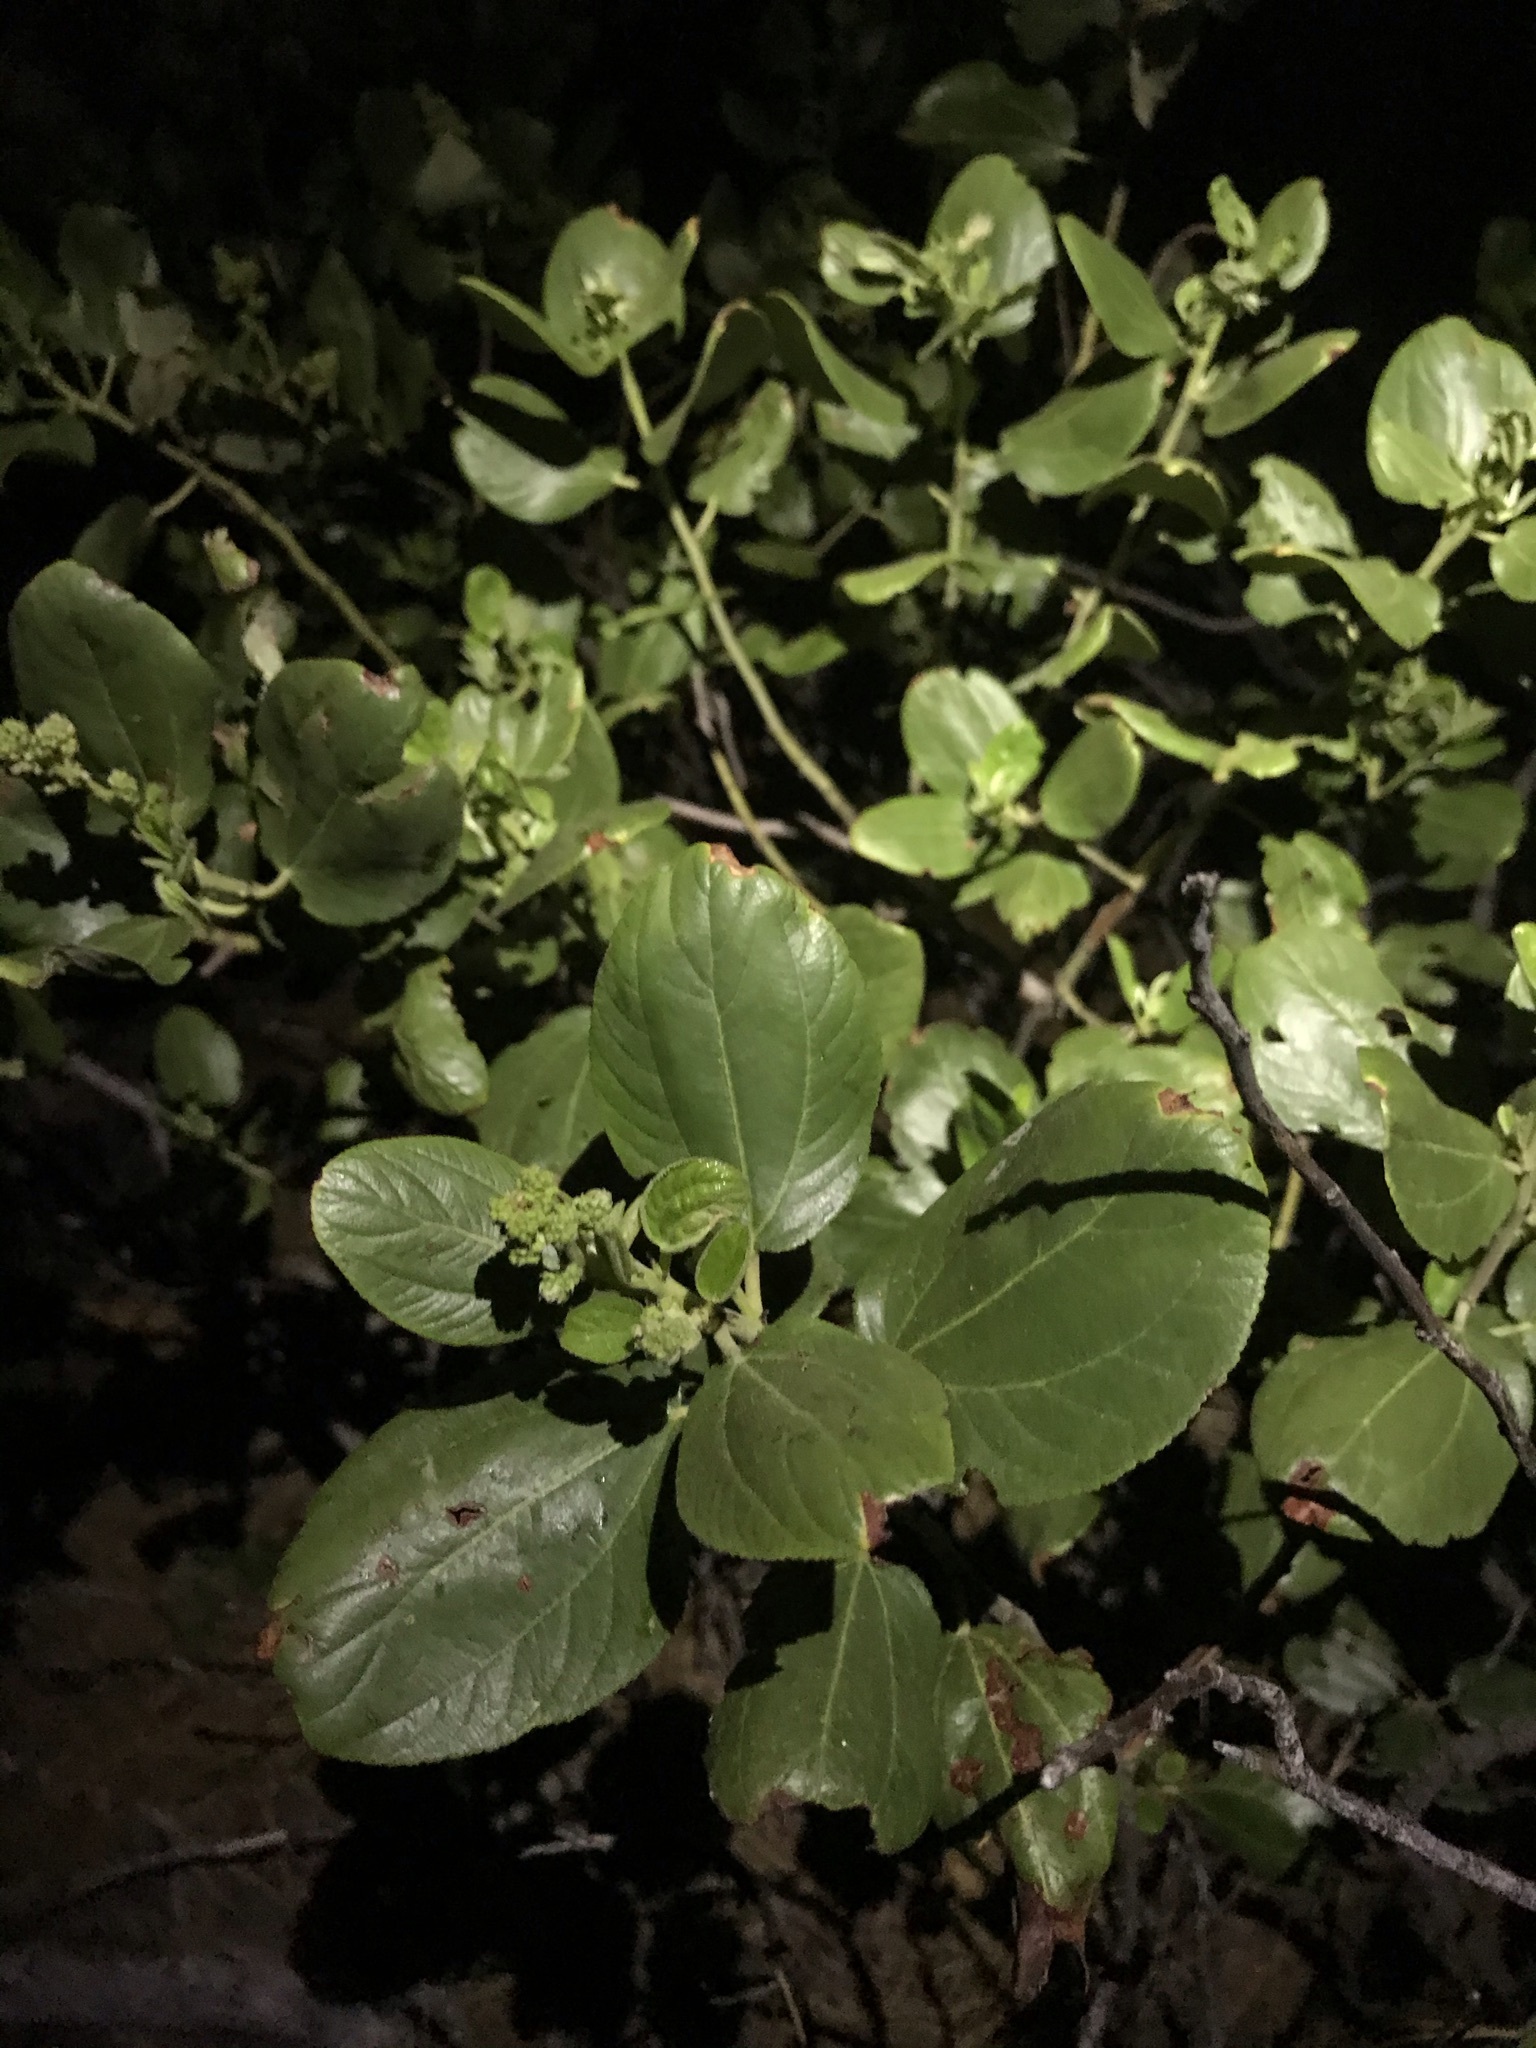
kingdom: Plantae
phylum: Tracheophyta
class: Magnoliopsida
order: Rosales
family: Rhamnaceae
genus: Ceanothus
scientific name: Ceanothus velutinus
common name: Snowbrush
